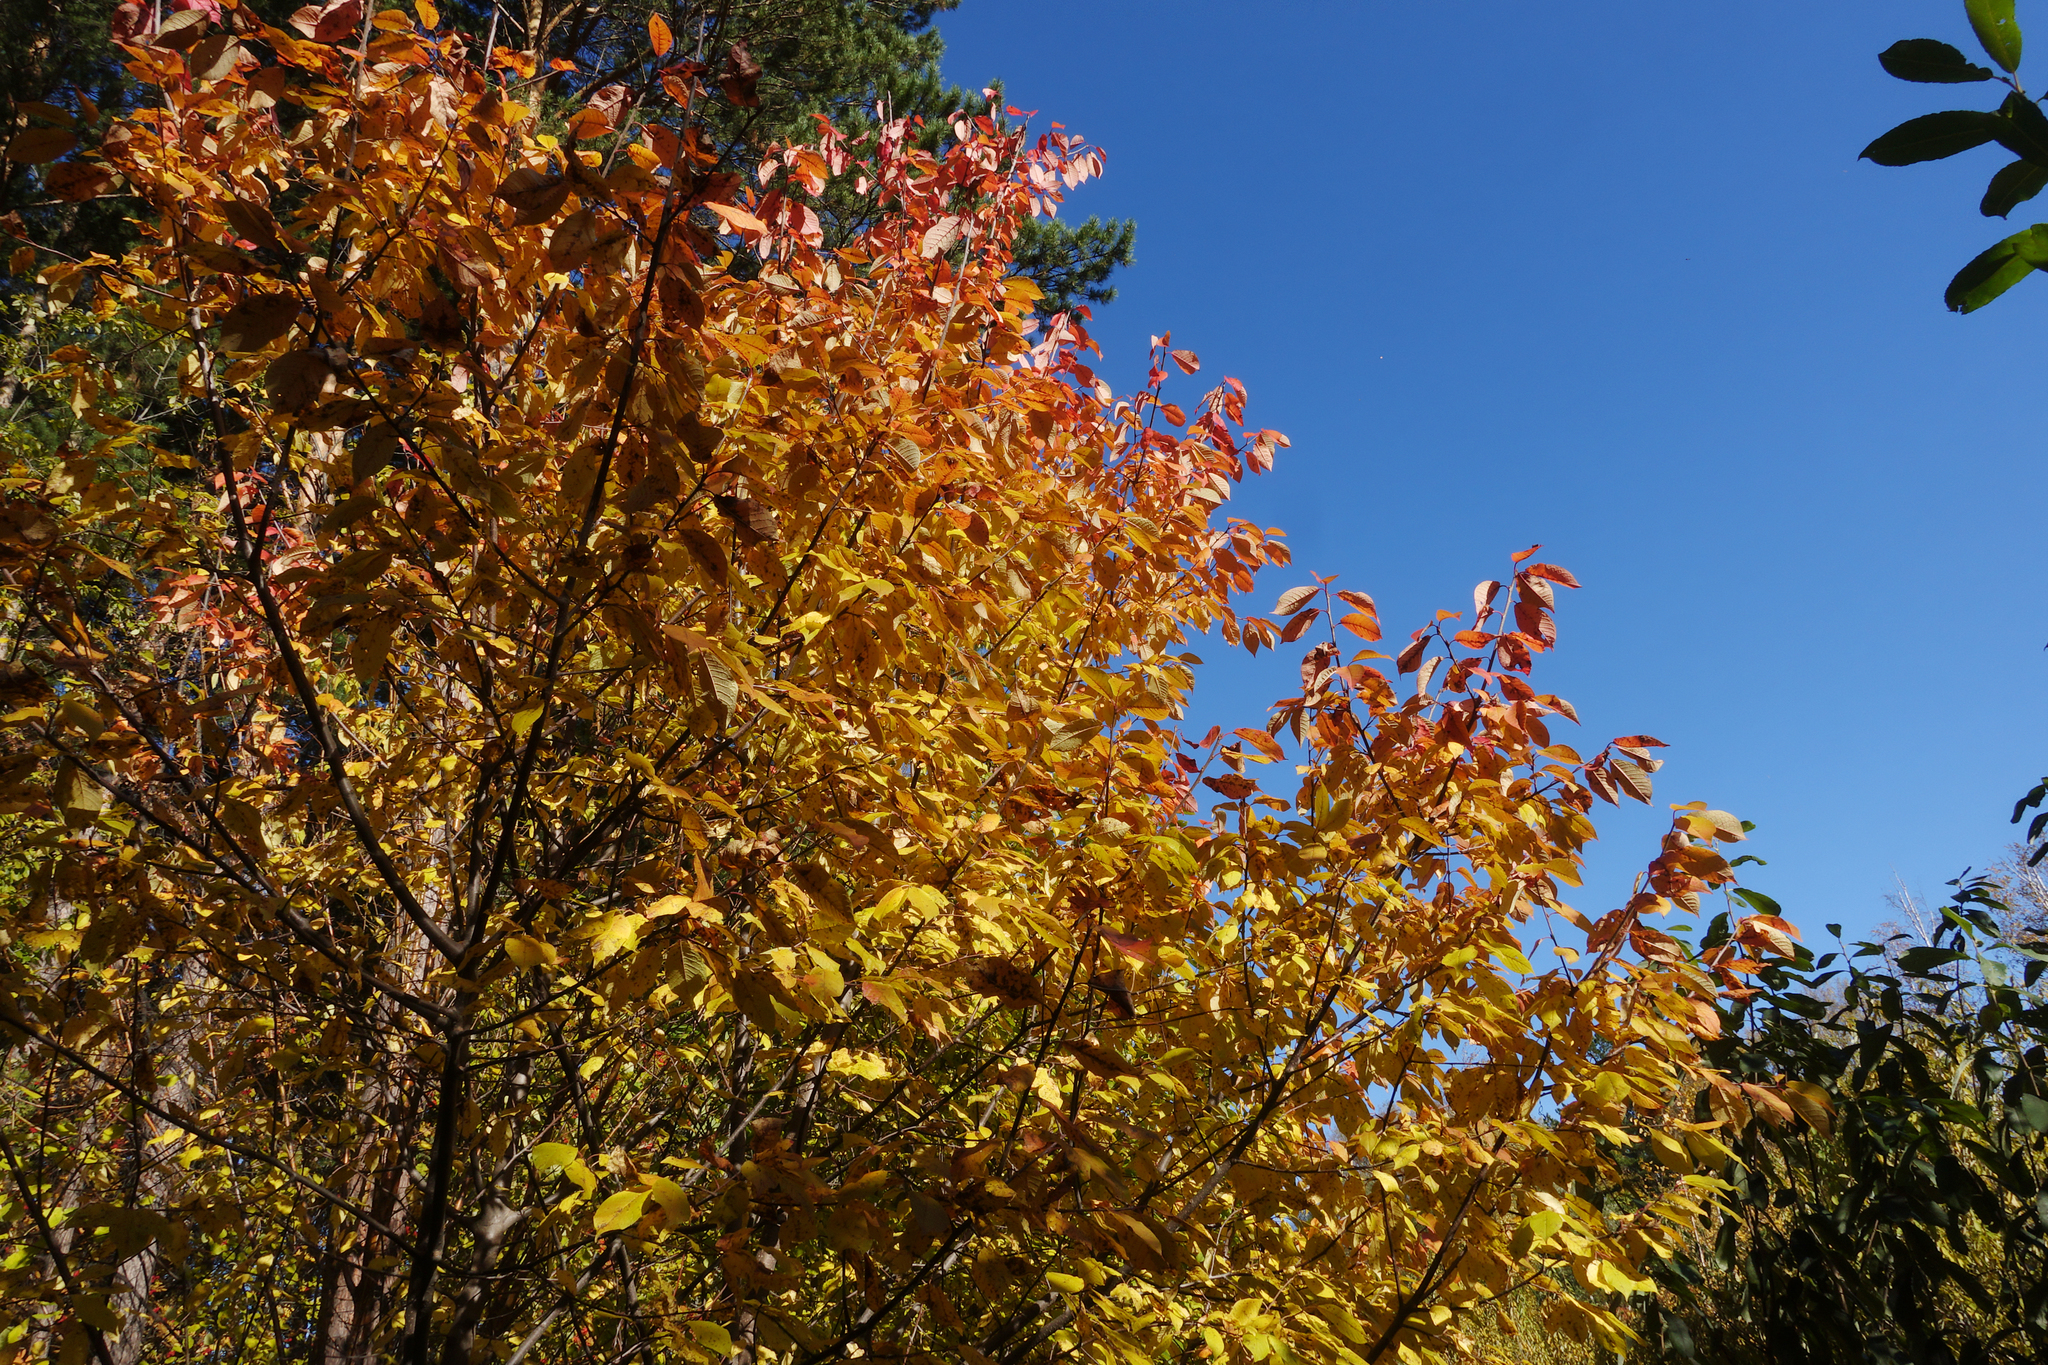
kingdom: Plantae
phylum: Tracheophyta
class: Magnoliopsida
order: Rosales
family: Rosaceae
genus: Prunus
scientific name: Prunus padus
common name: Bird cherry
